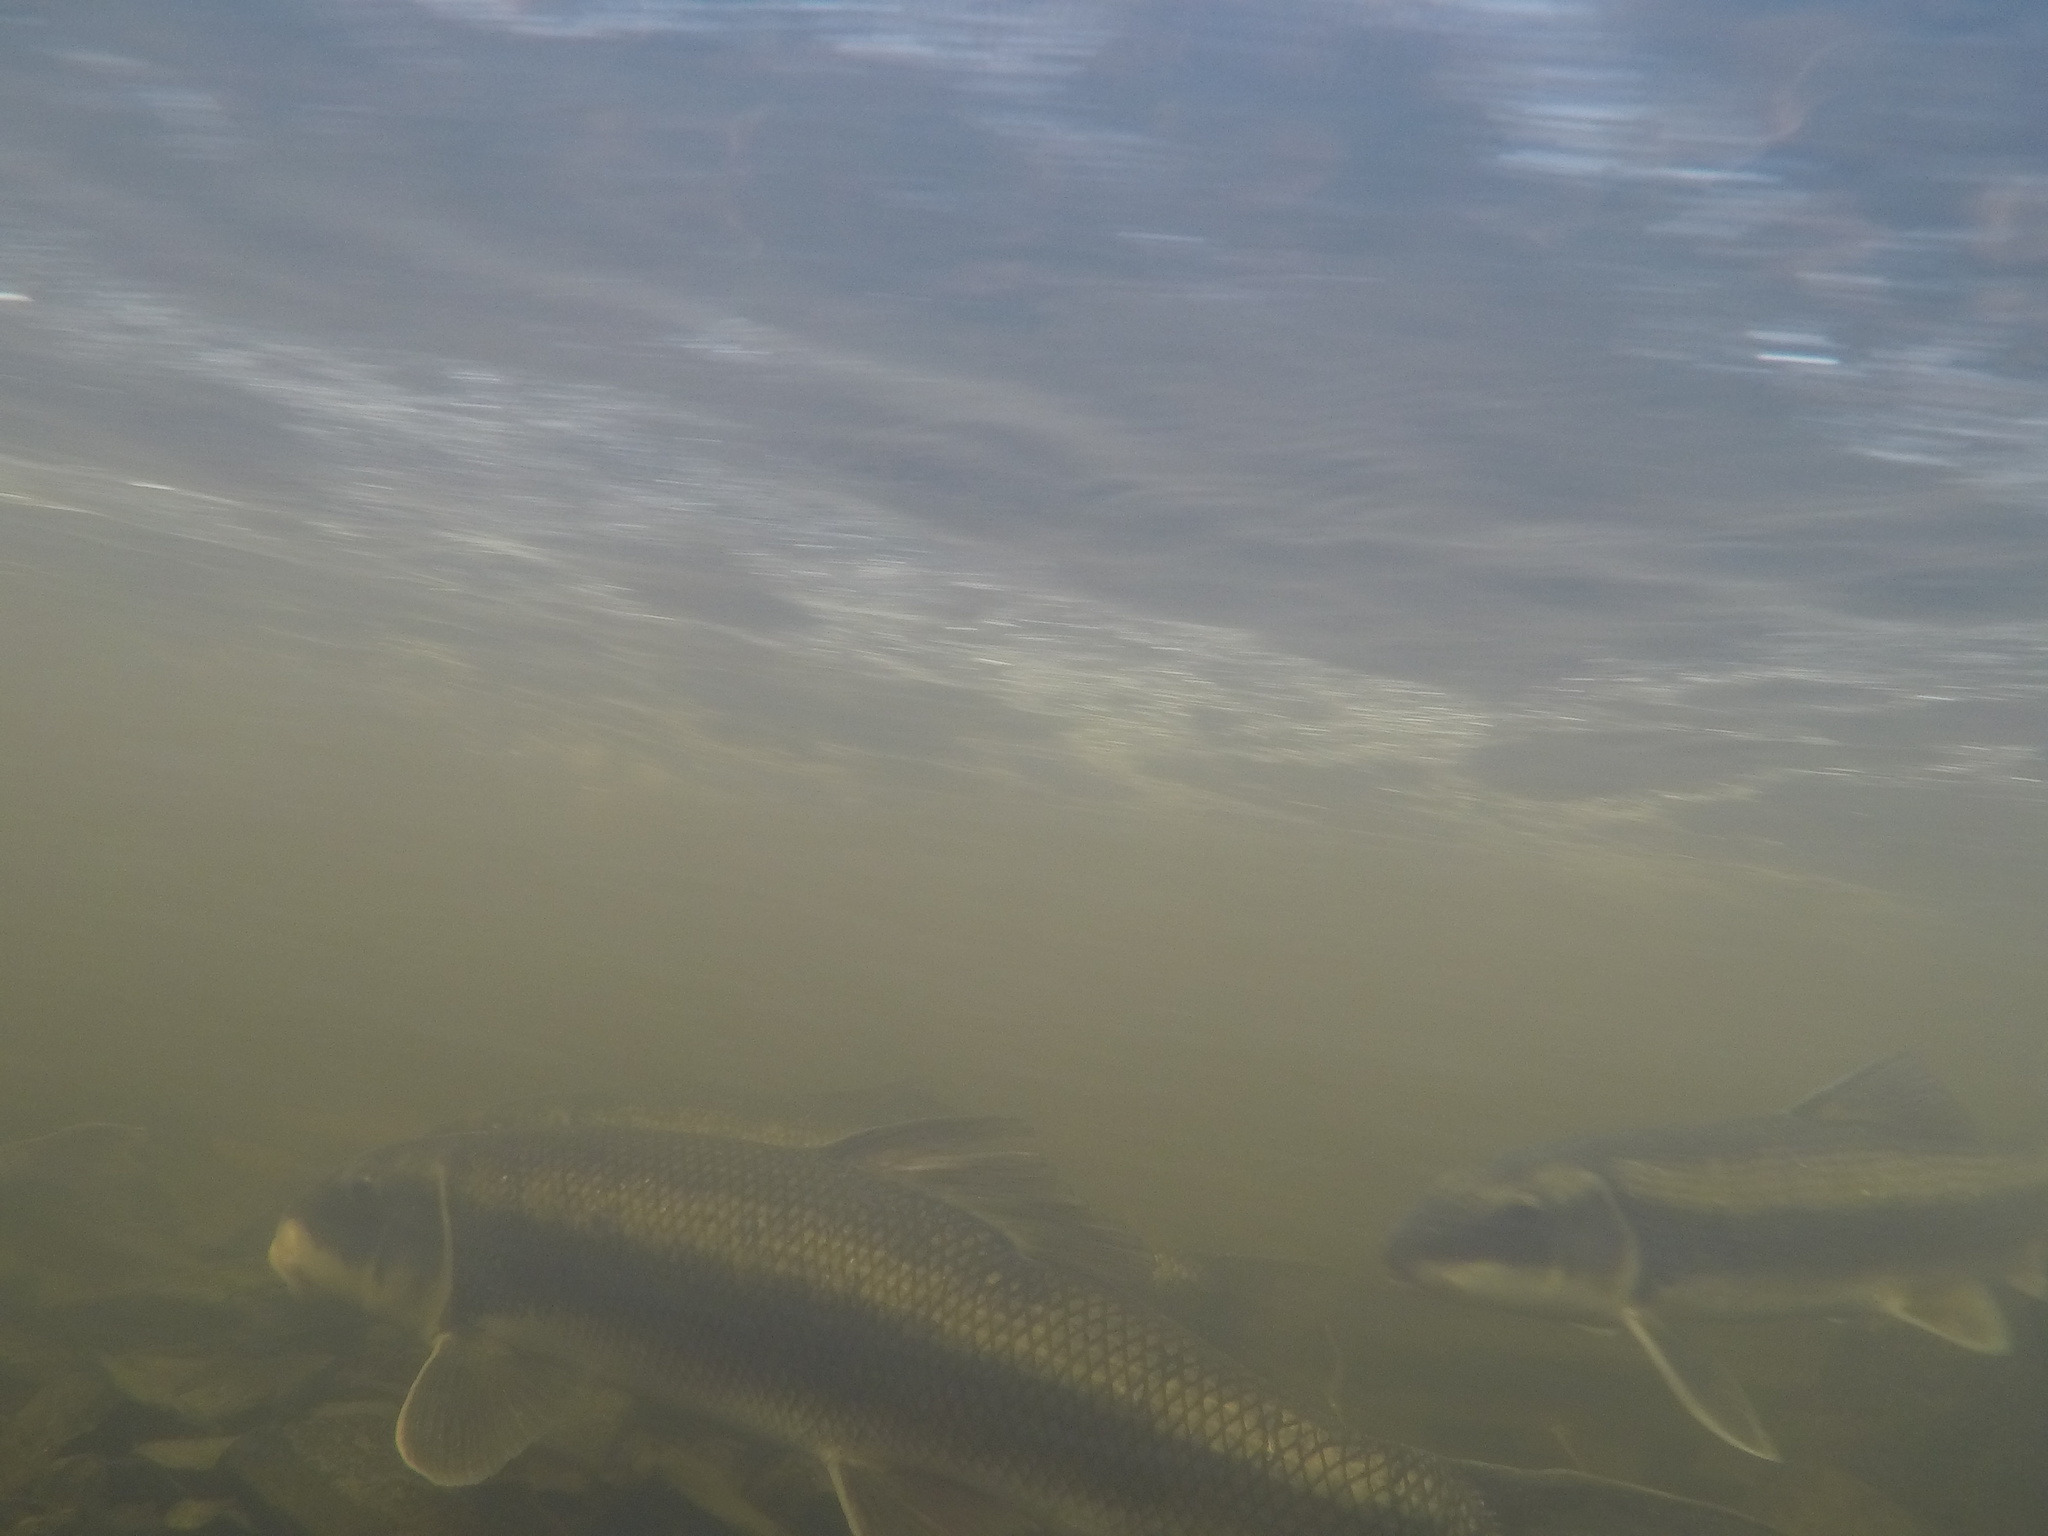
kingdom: Animalia
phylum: Chordata
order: Cypriniformes
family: Catostomidae
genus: Catostomus
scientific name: Catostomus commersonii
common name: White sucker
